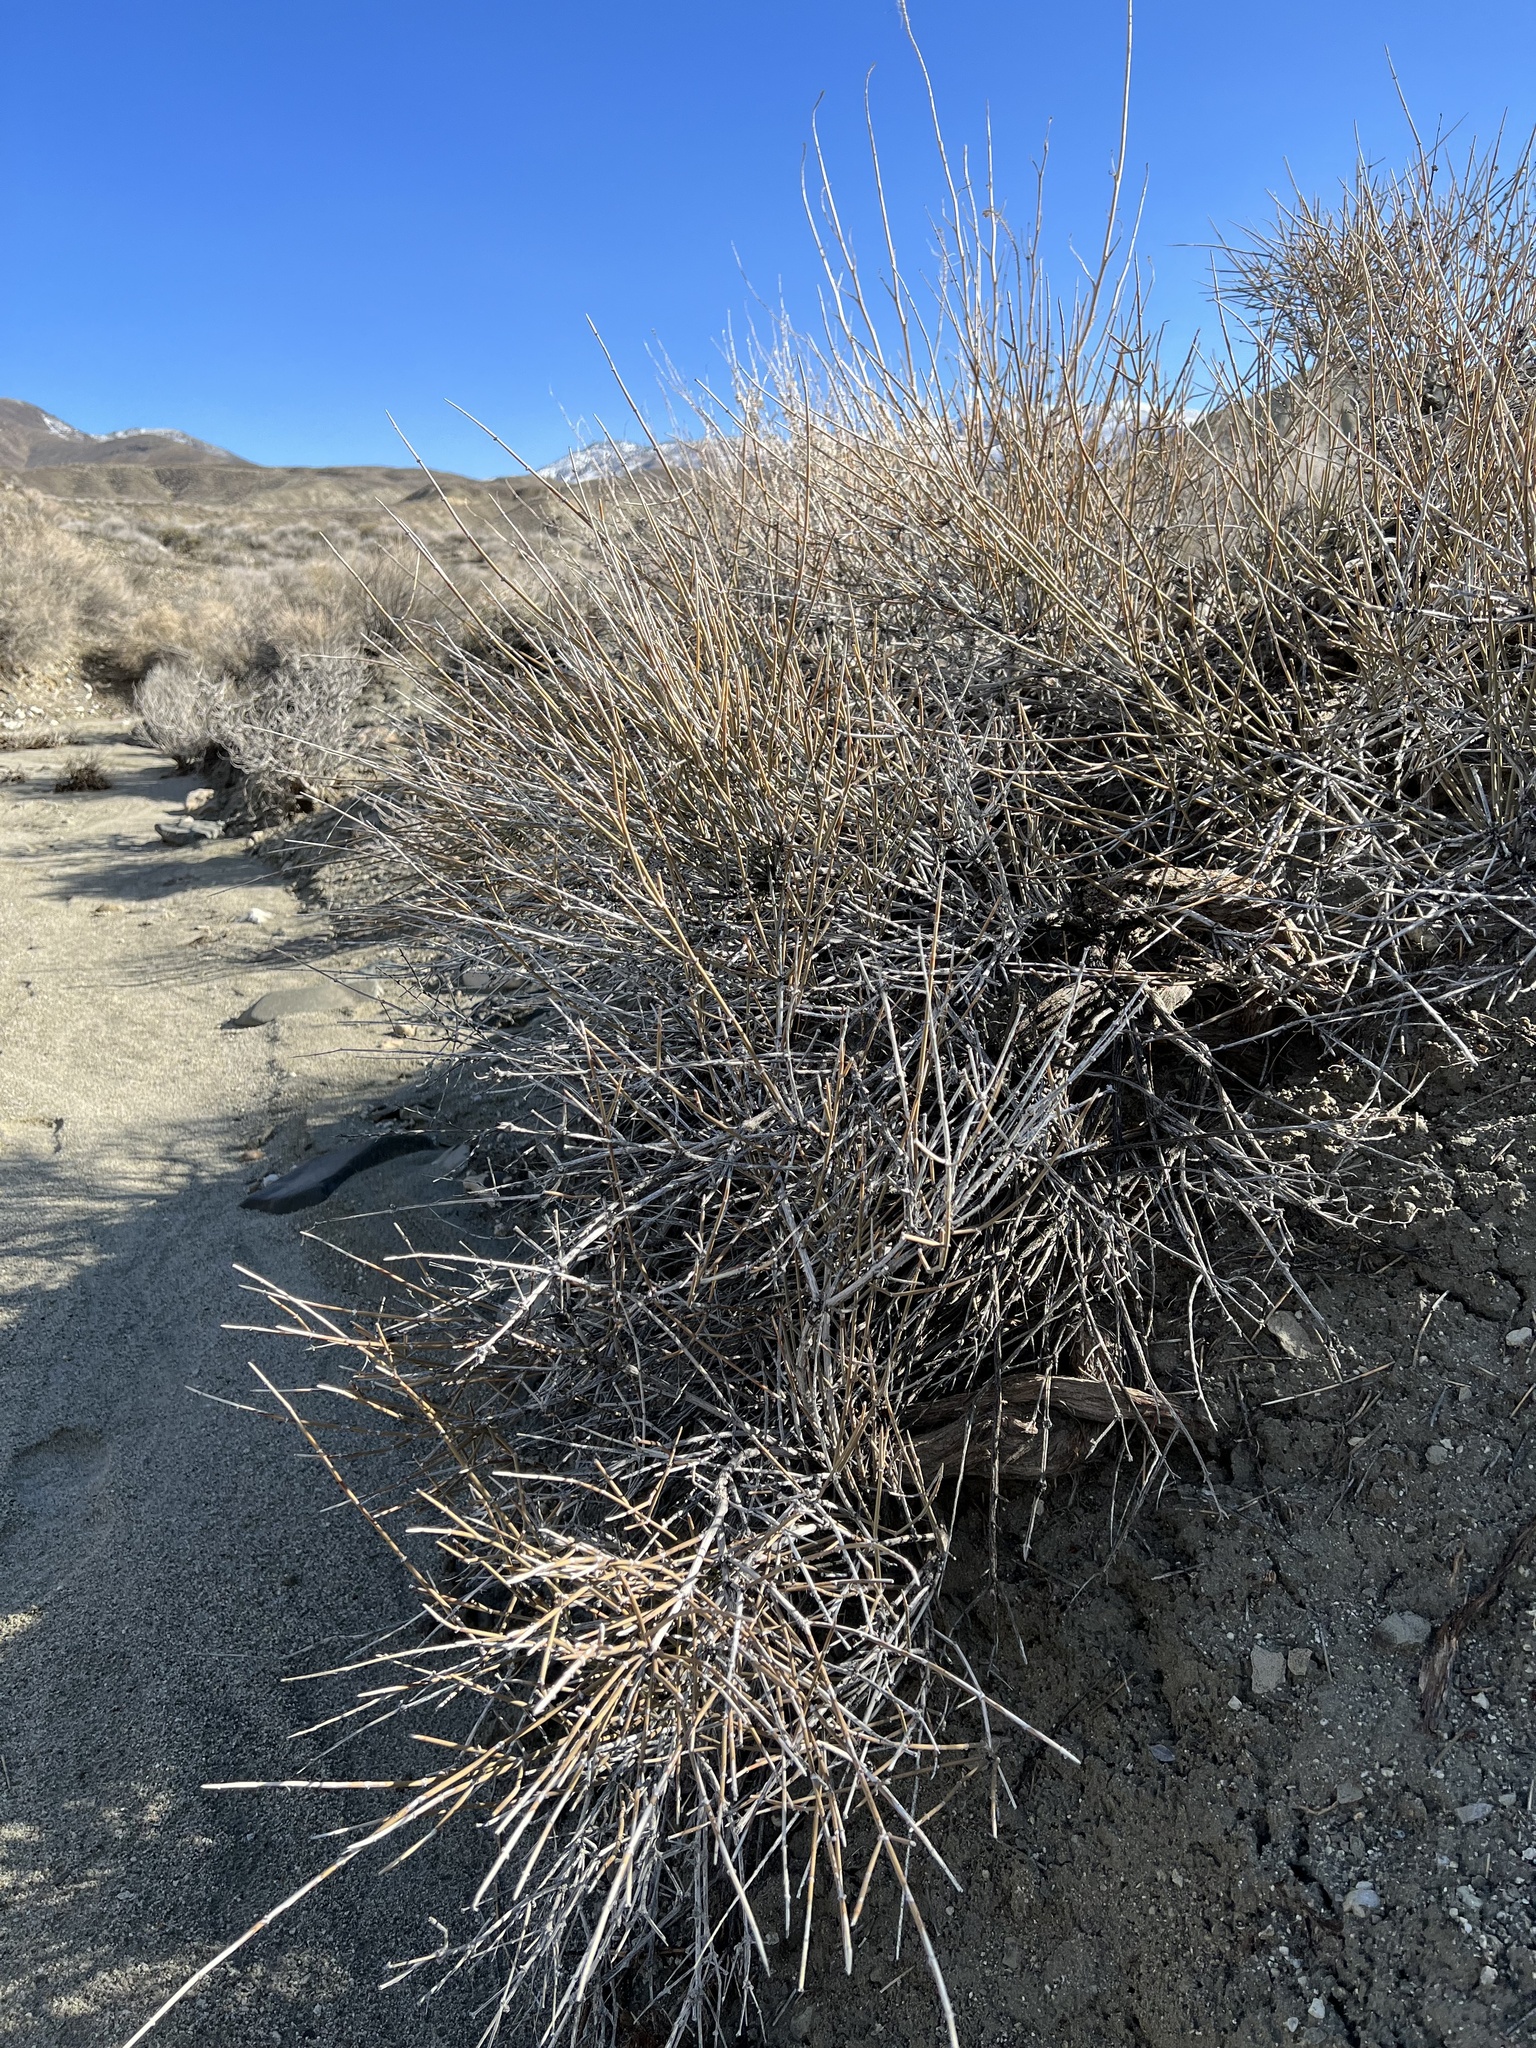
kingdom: Plantae
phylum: Tracheophyta
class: Gnetopsida
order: Ephedrales
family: Ephedraceae
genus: Ephedra
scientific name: Ephedra nevadensis
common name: Gray ephedra
